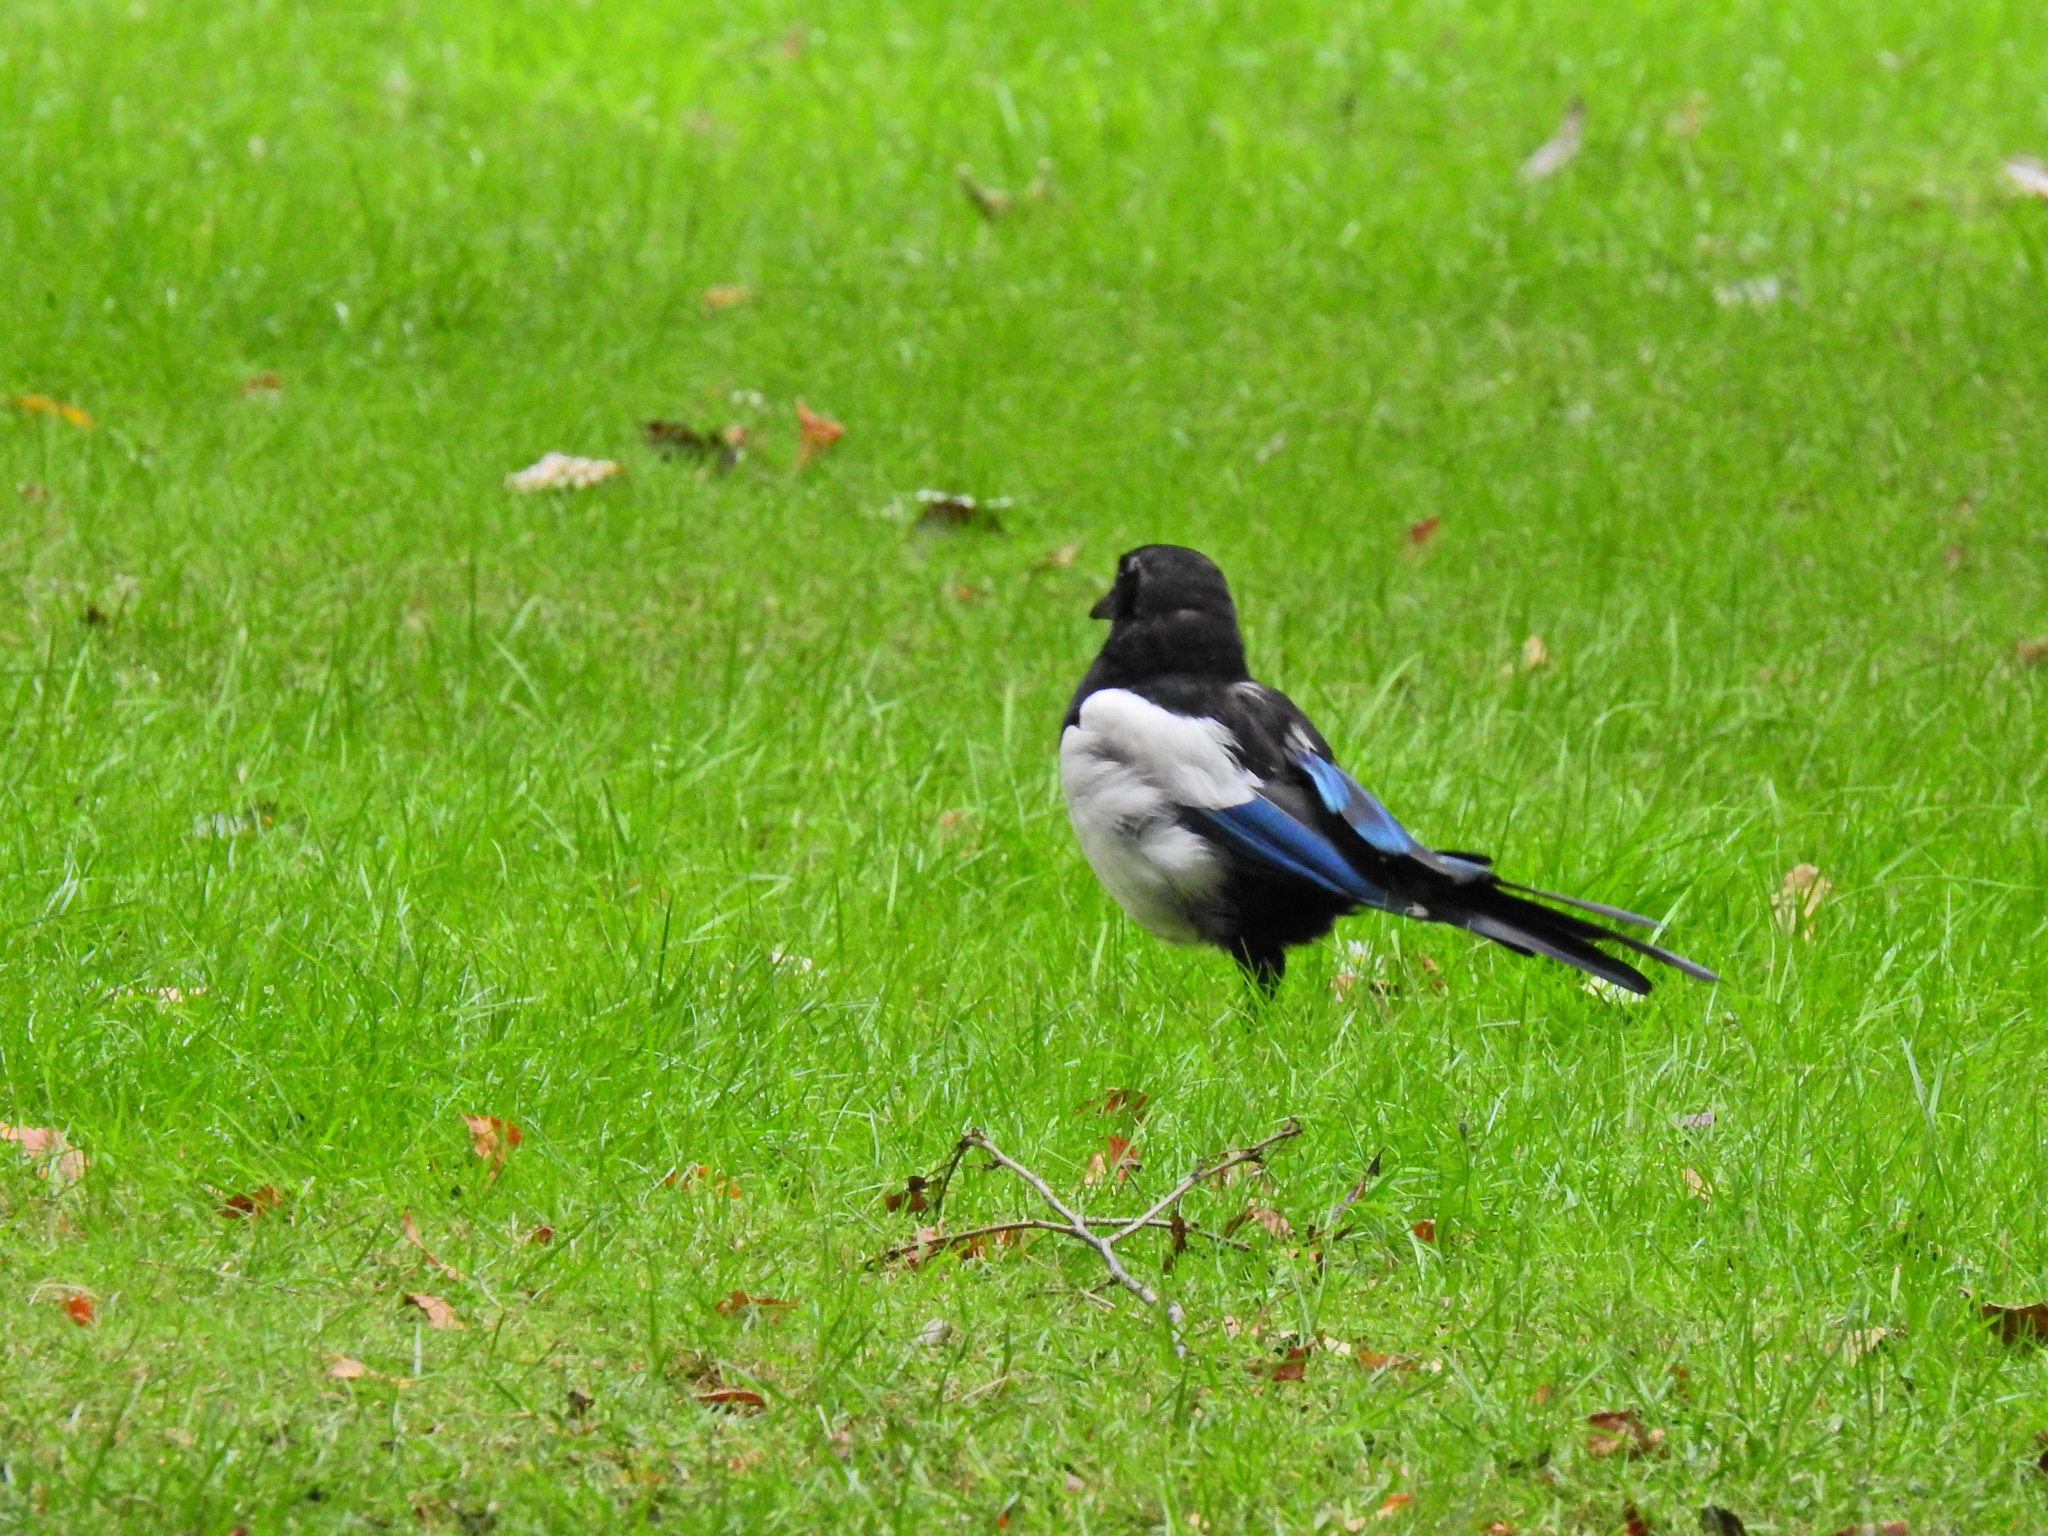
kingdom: Animalia
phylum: Chordata
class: Aves
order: Passeriformes
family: Corvidae
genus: Pica
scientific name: Pica pica
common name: Eurasian magpie
